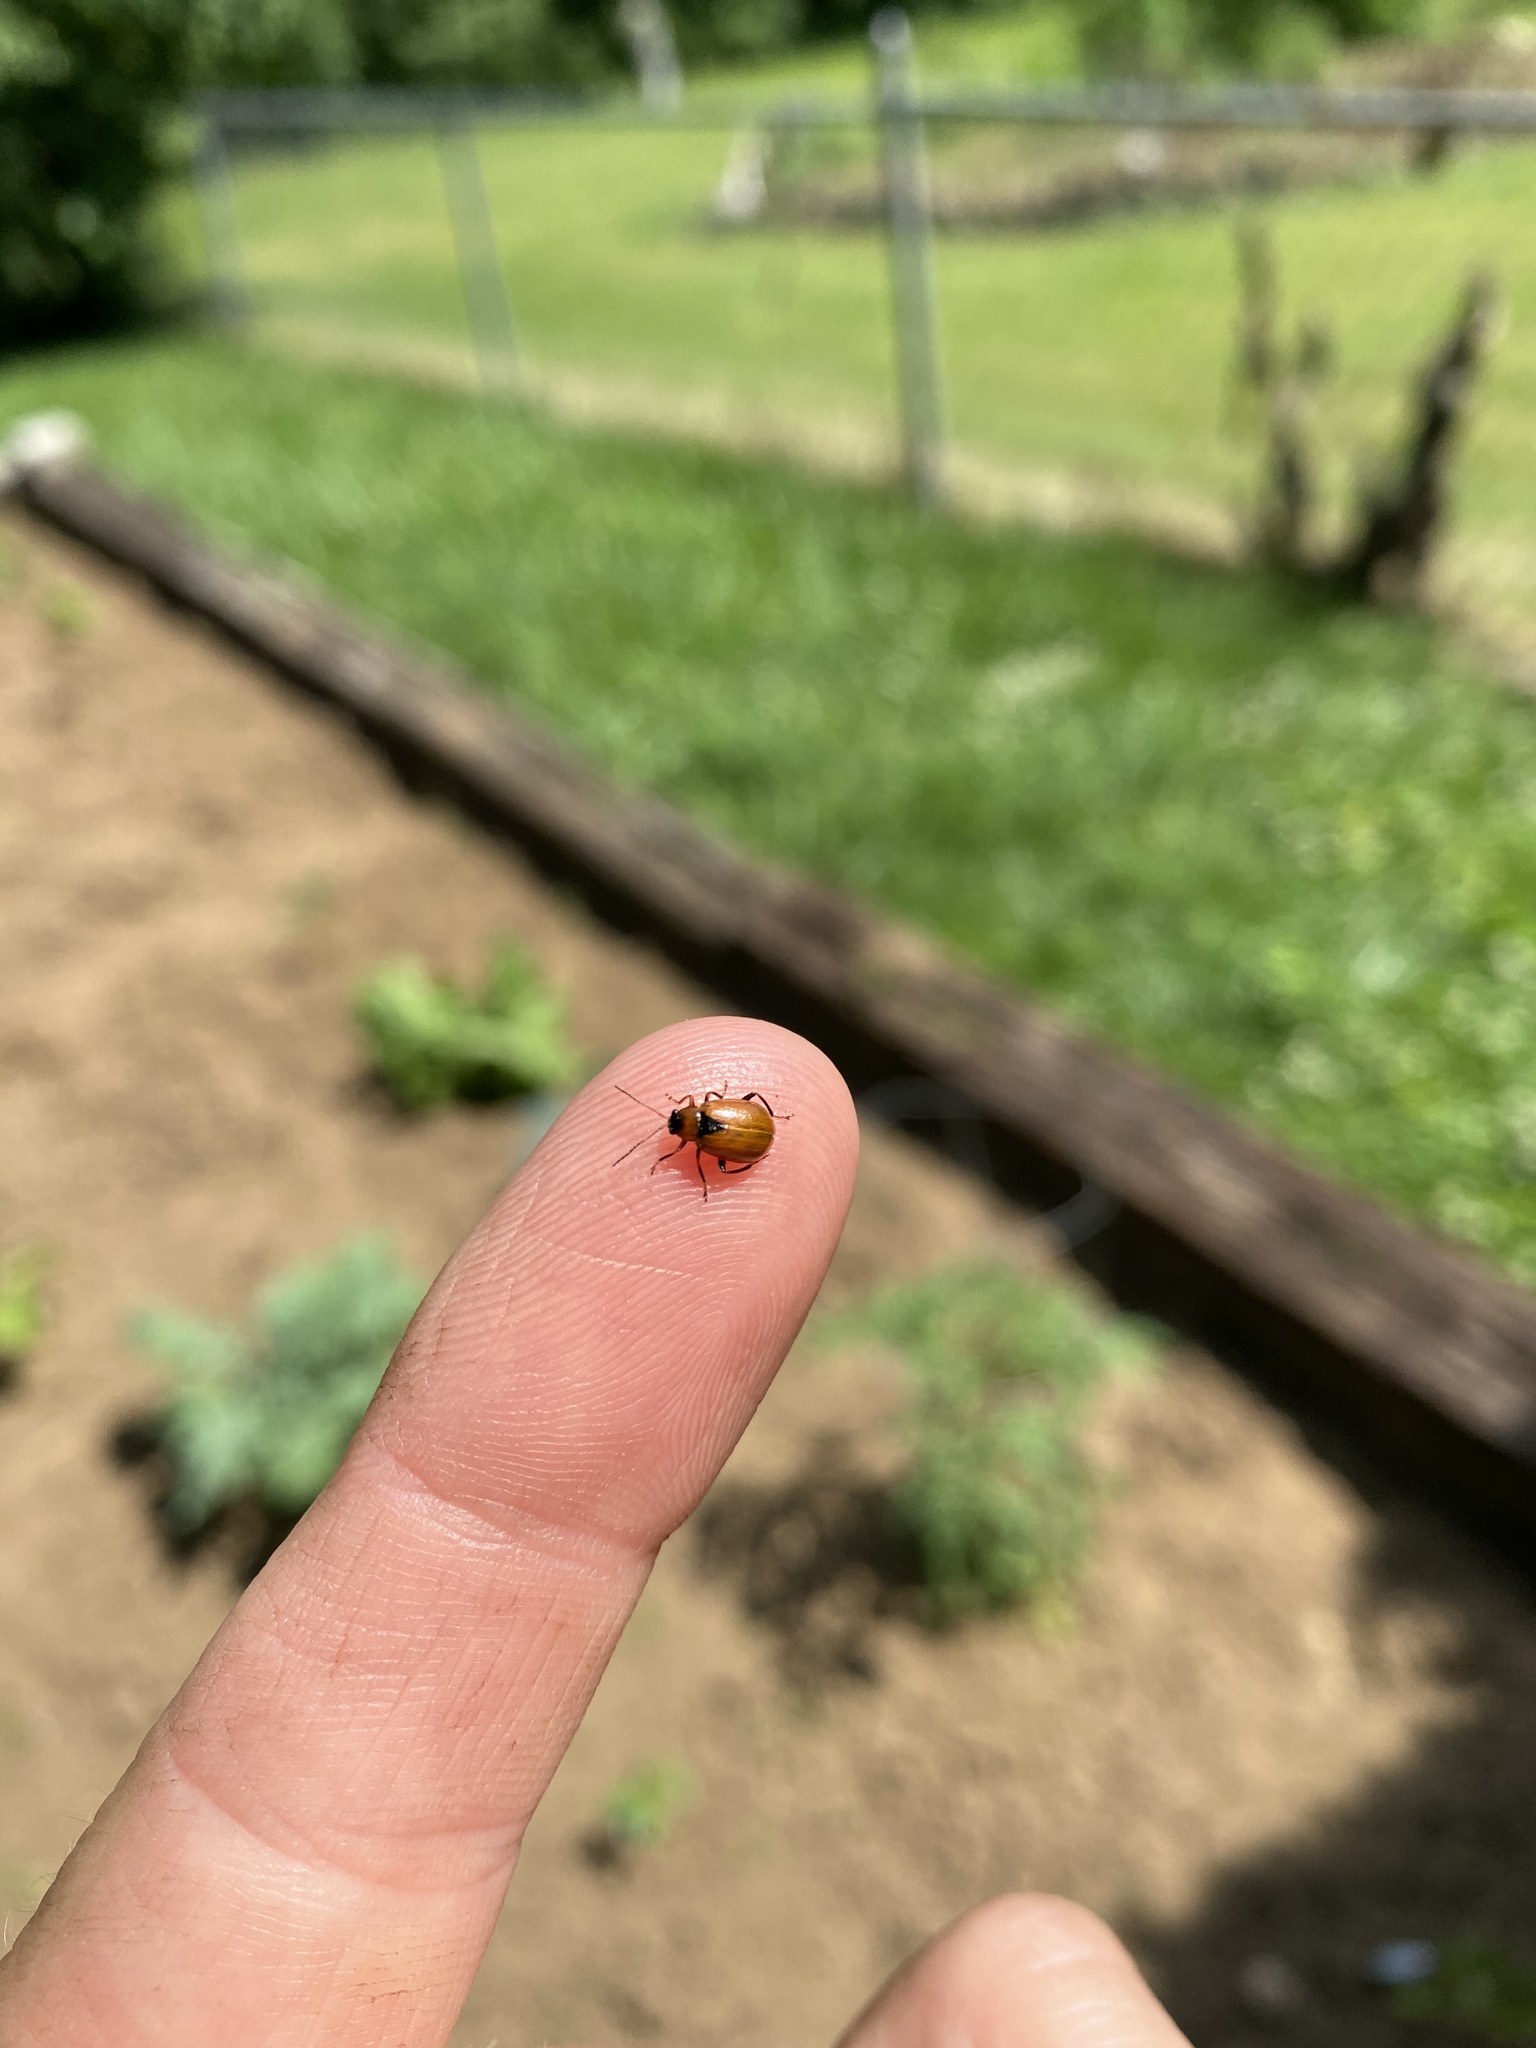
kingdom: Animalia
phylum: Arthropoda
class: Insecta
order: Coleoptera
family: Chrysomelidae
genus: Cerotoma
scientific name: Cerotoma trifurcata
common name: Bean leaf beetle
